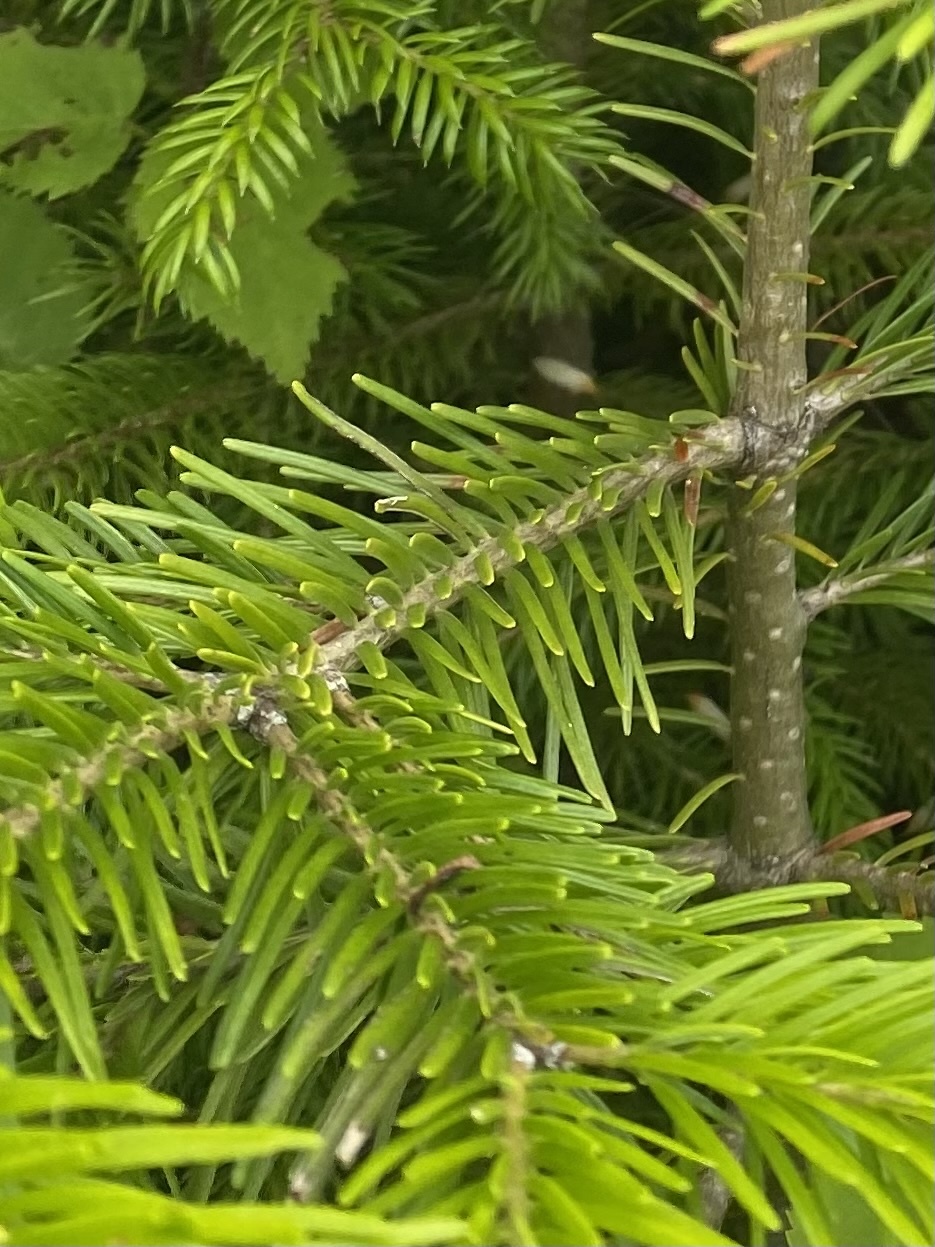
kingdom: Plantae
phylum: Tracheophyta
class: Pinopsida
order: Pinales
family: Pinaceae
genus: Abies
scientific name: Abies sachalinensis
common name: Sakhalin fir
